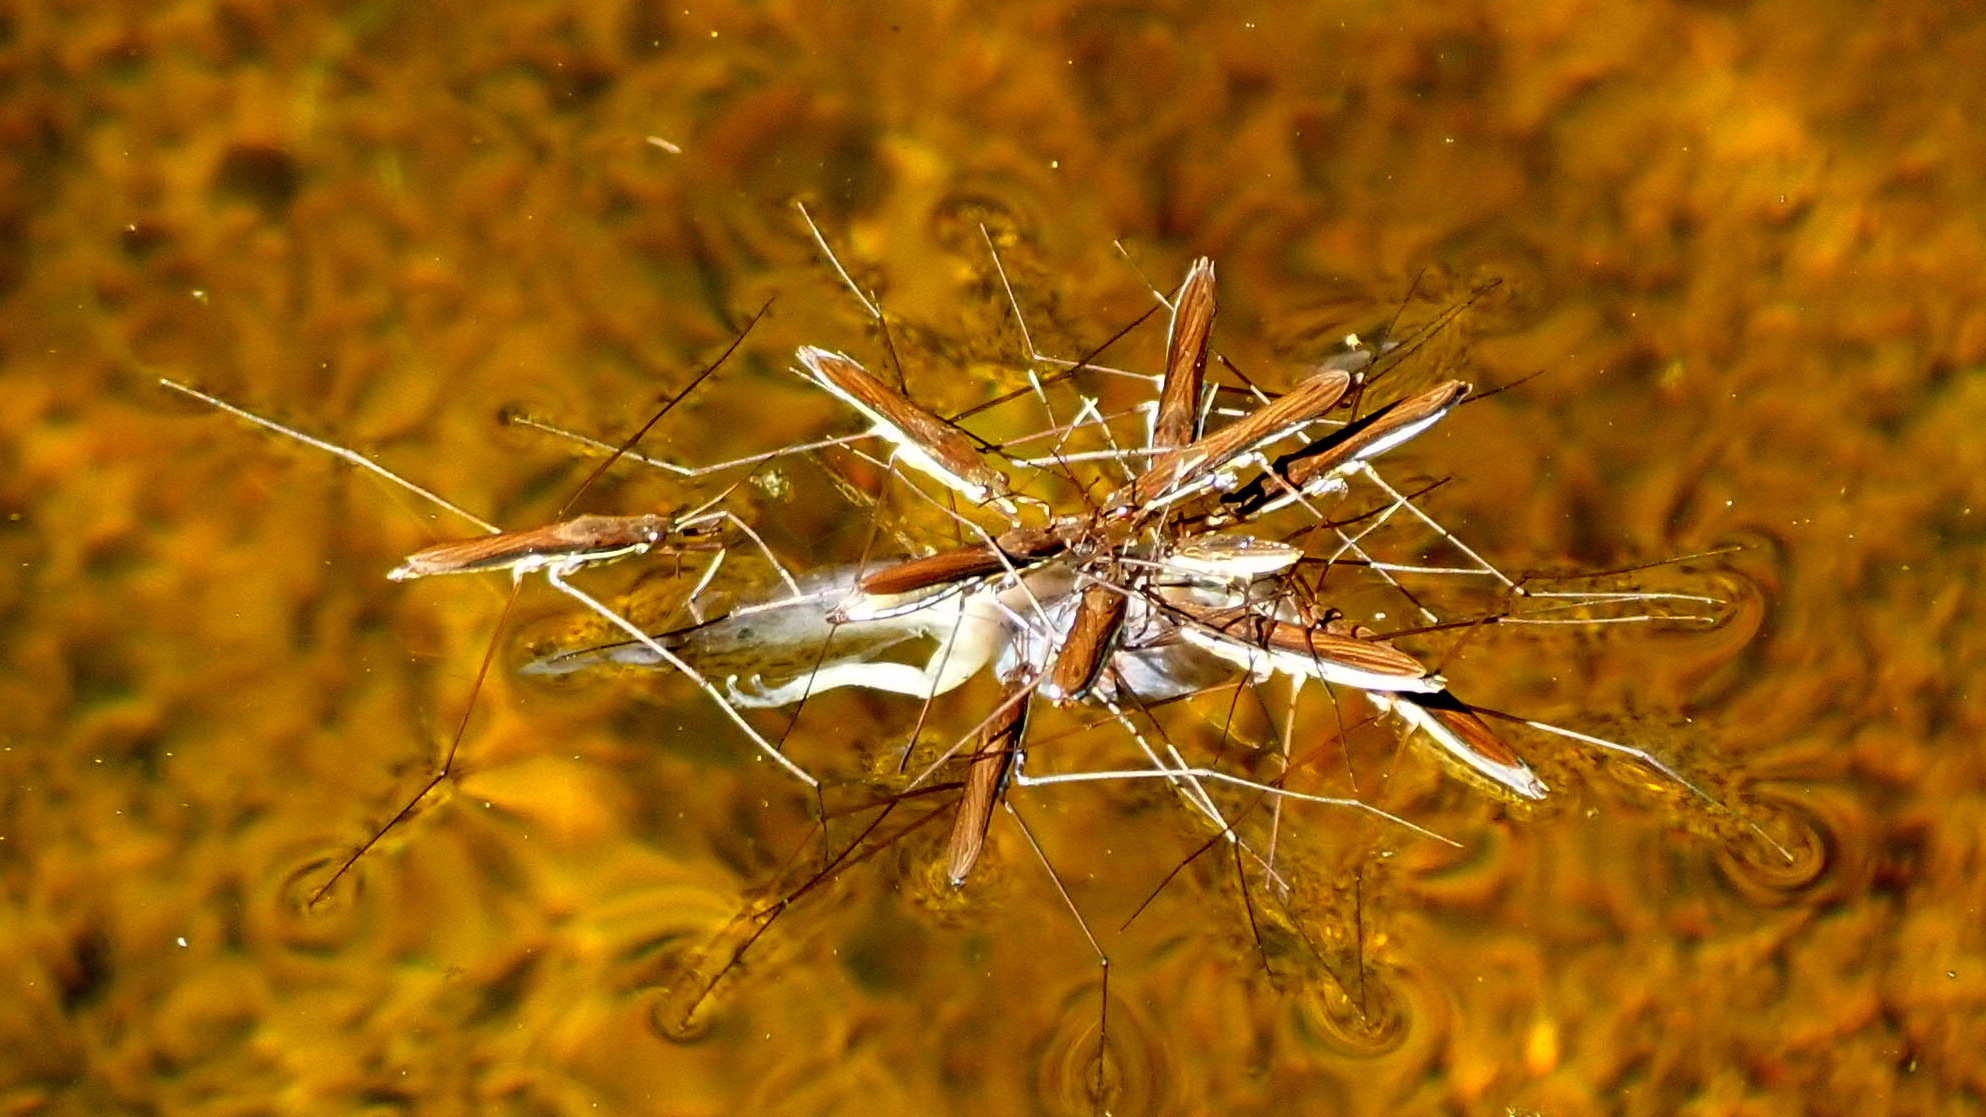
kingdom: Animalia
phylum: Arthropoda
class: Insecta
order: Hemiptera
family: Gerridae
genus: Limnoporus
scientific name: Limnoporus dissortis
